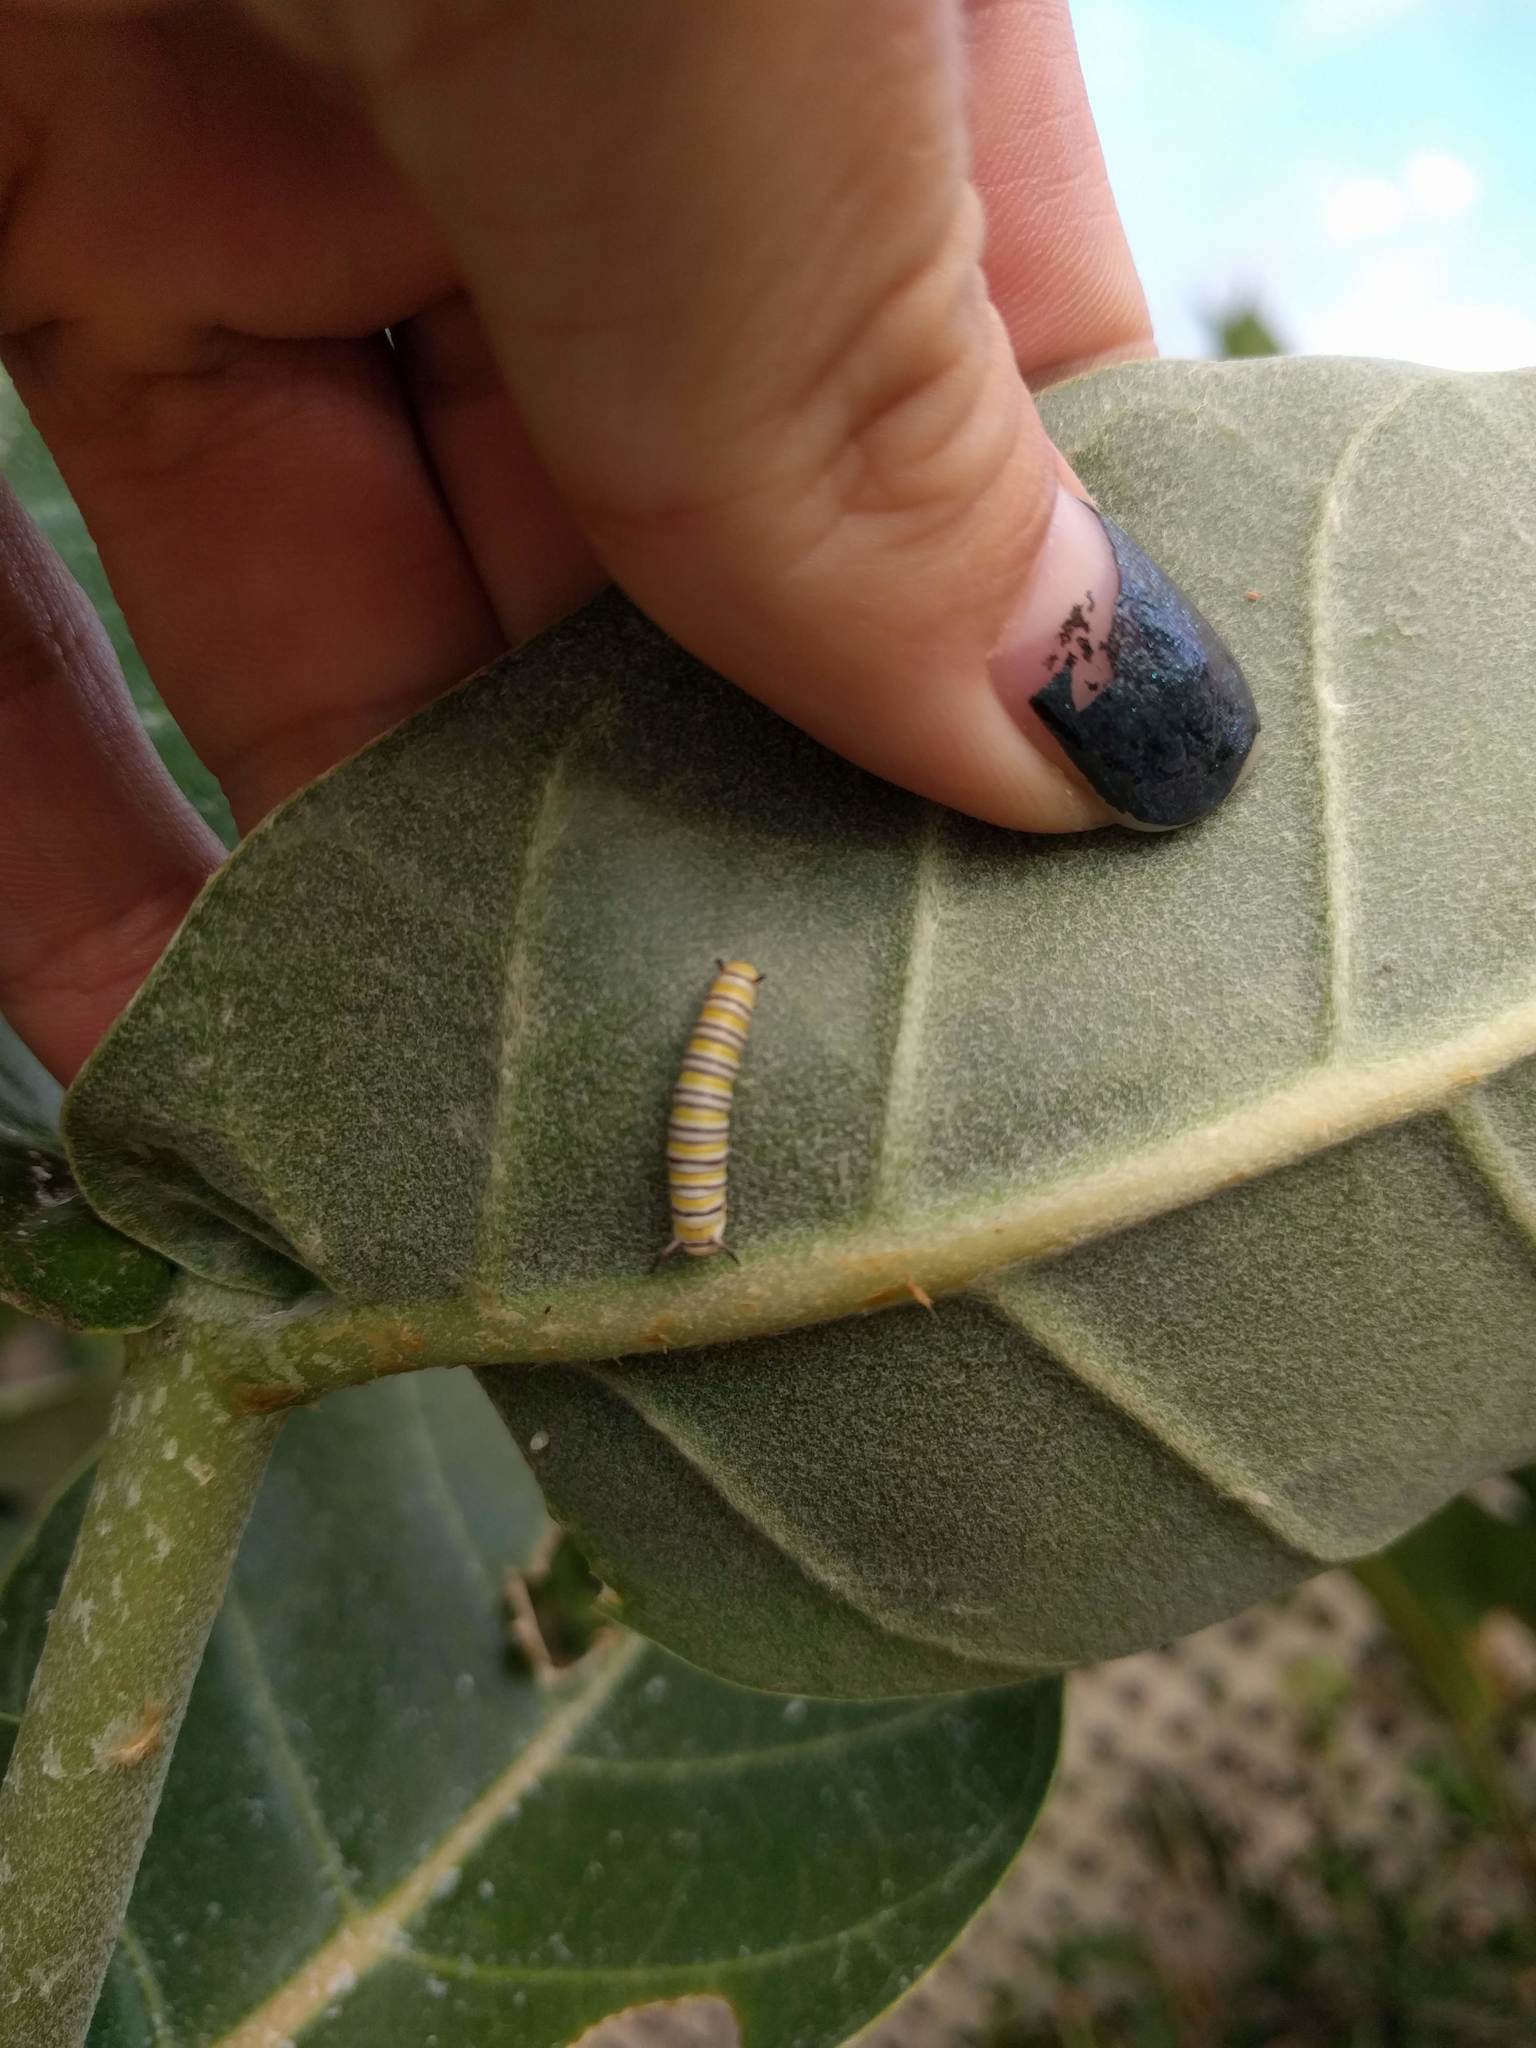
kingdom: Animalia
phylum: Arthropoda
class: Insecta
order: Lepidoptera
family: Nymphalidae
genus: Danaus
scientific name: Danaus plexippus
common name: Monarch
